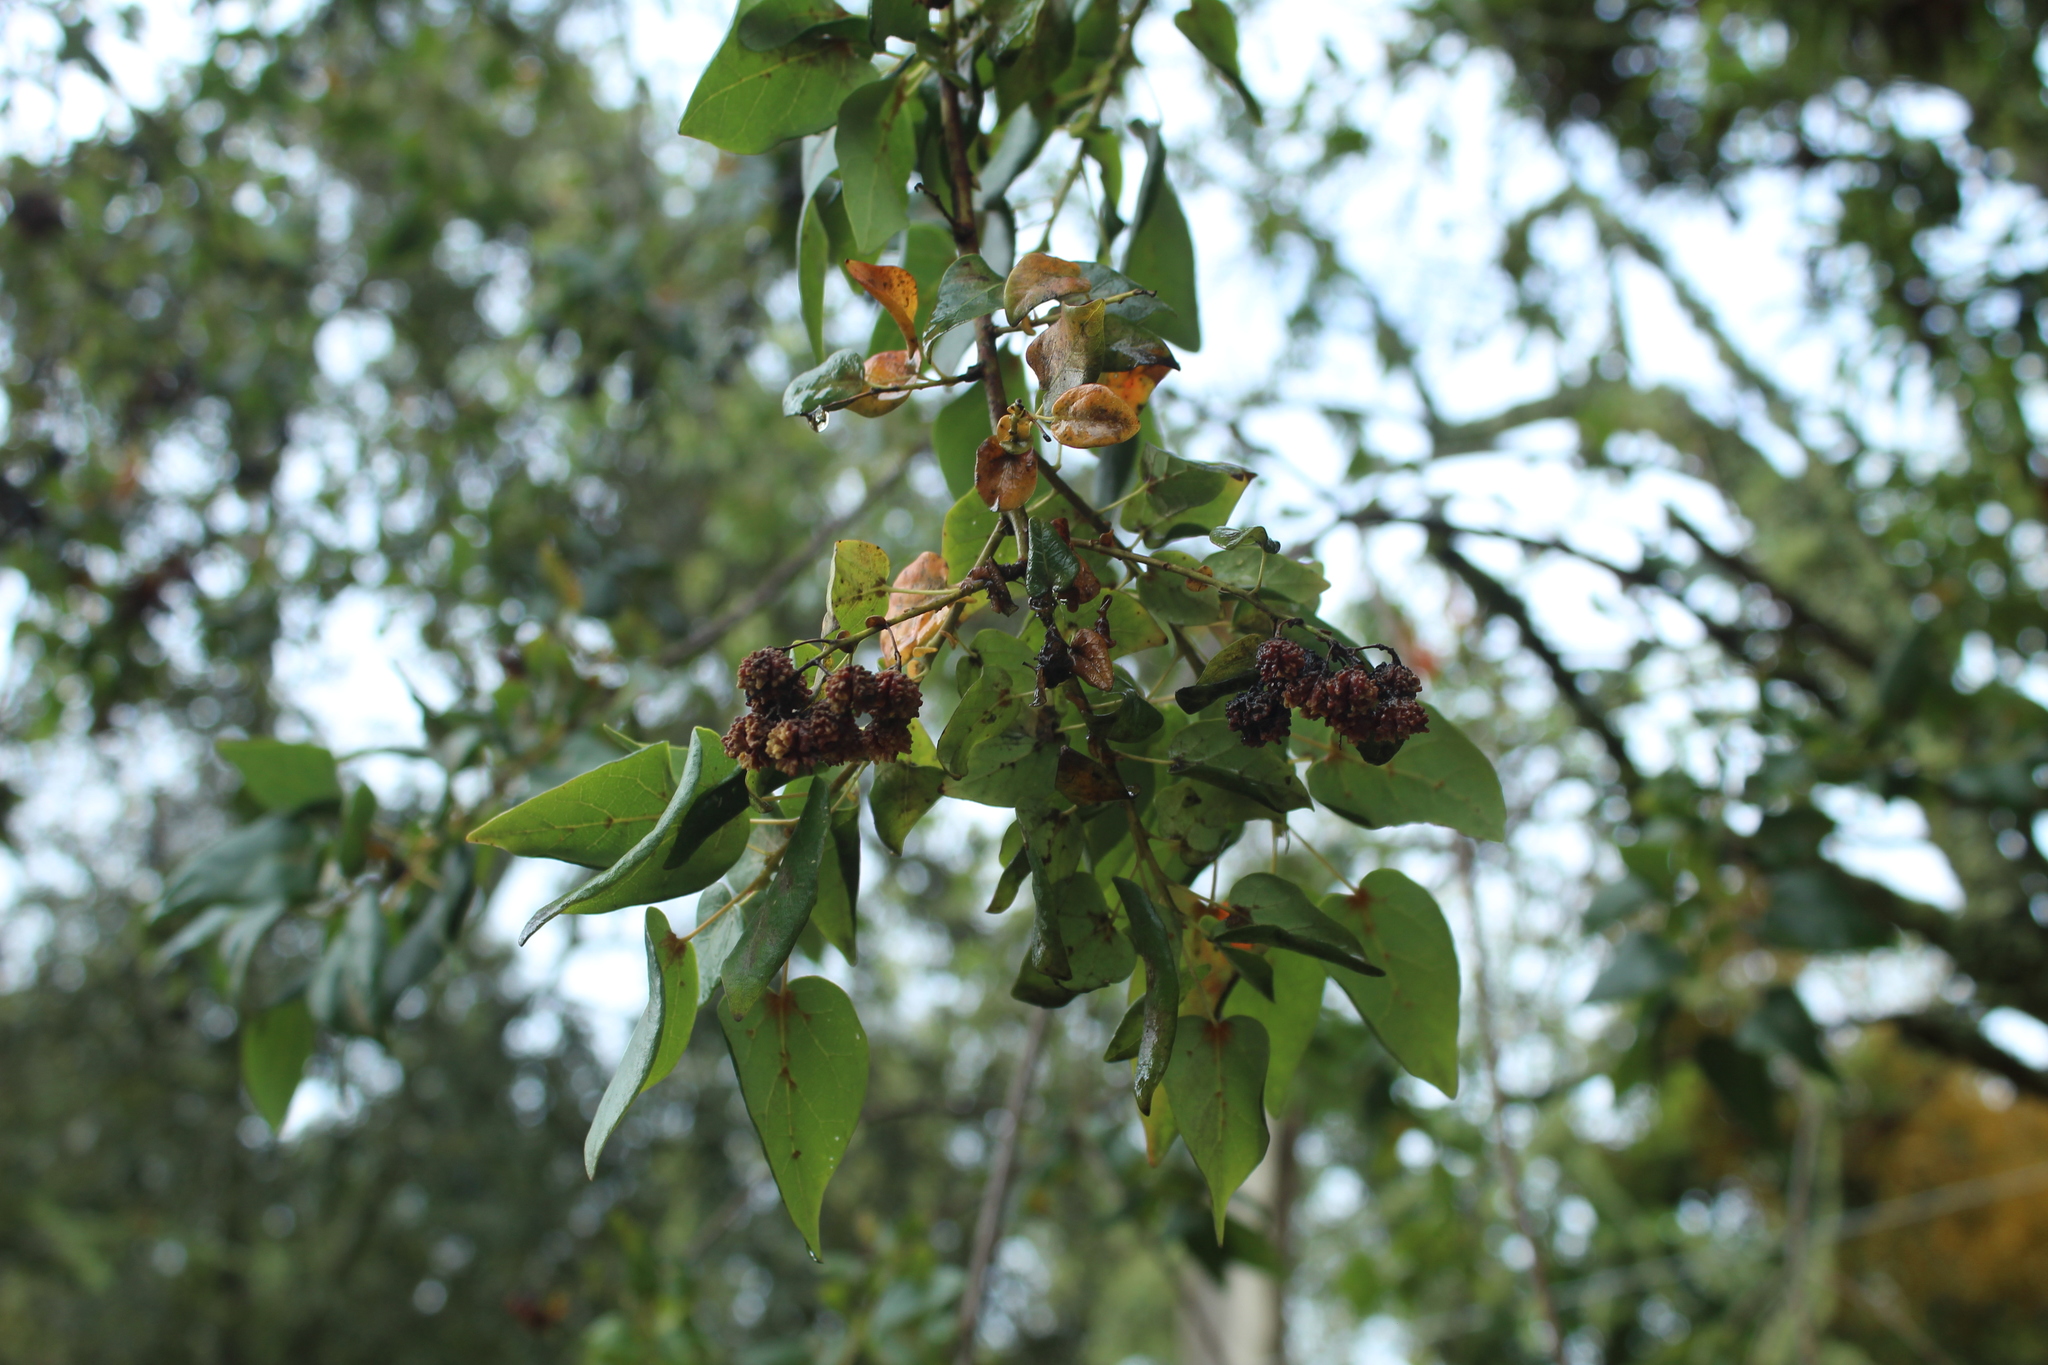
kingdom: Plantae
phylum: Tracheophyta
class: Magnoliopsida
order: Oxalidales
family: Elaeocarpaceae
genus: Vallea
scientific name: Vallea stipularis
